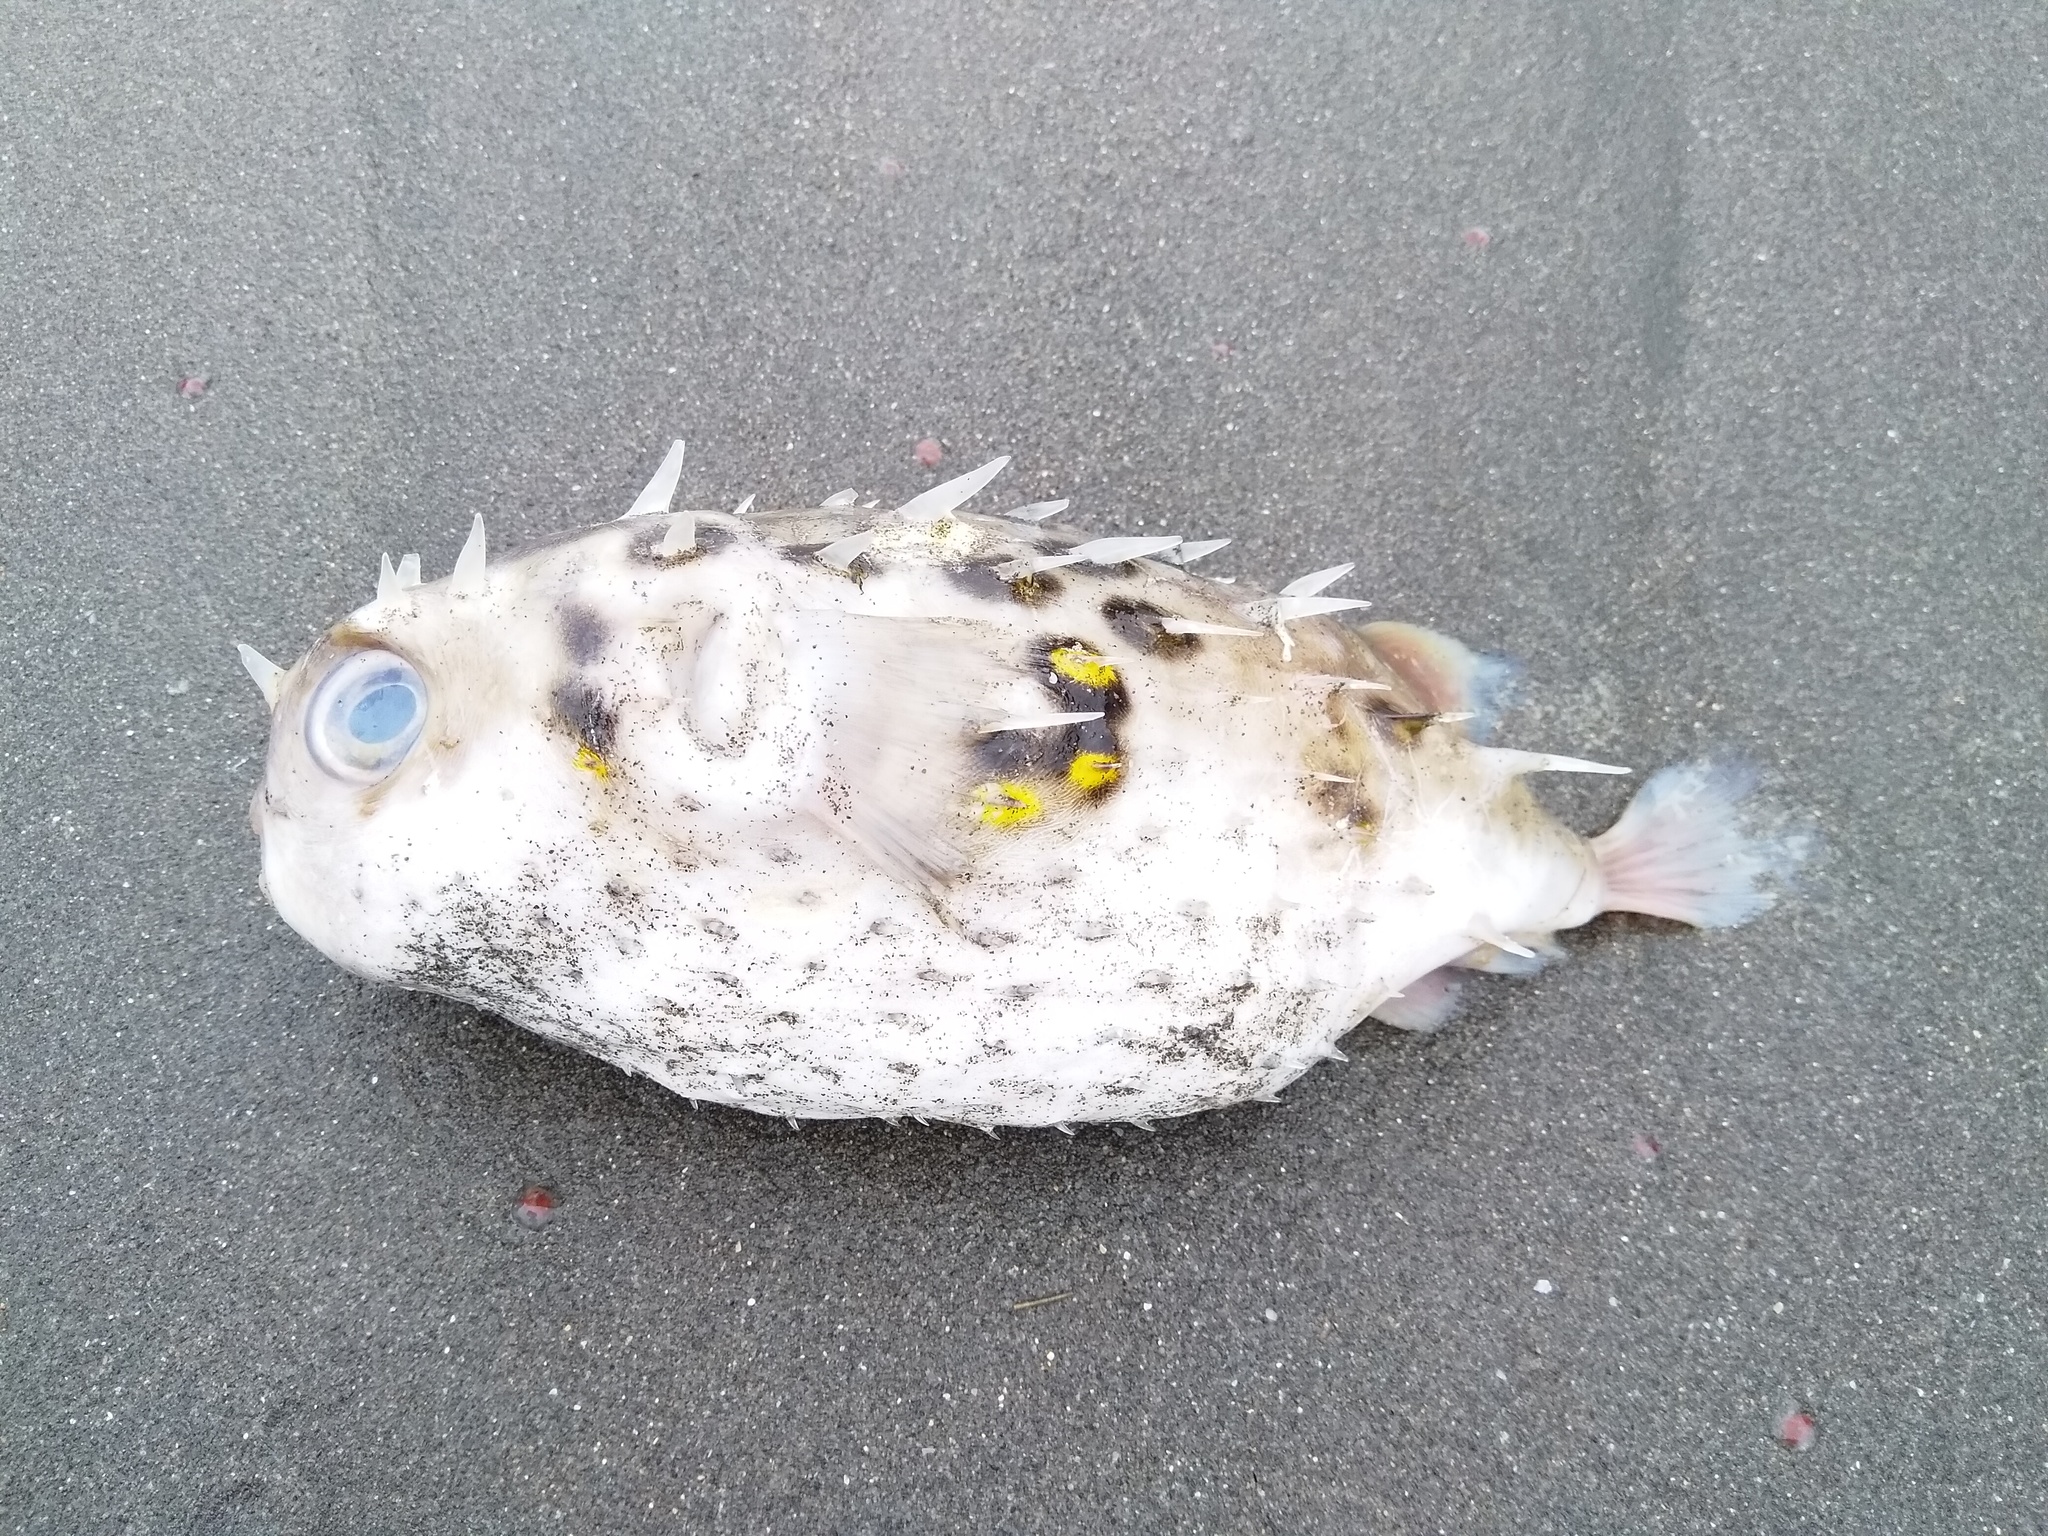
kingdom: Animalia
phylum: Chordata
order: Tetraodontiformes
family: Diodontidae
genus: Allomycterus
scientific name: Allomycterus pilatus
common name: No common name
